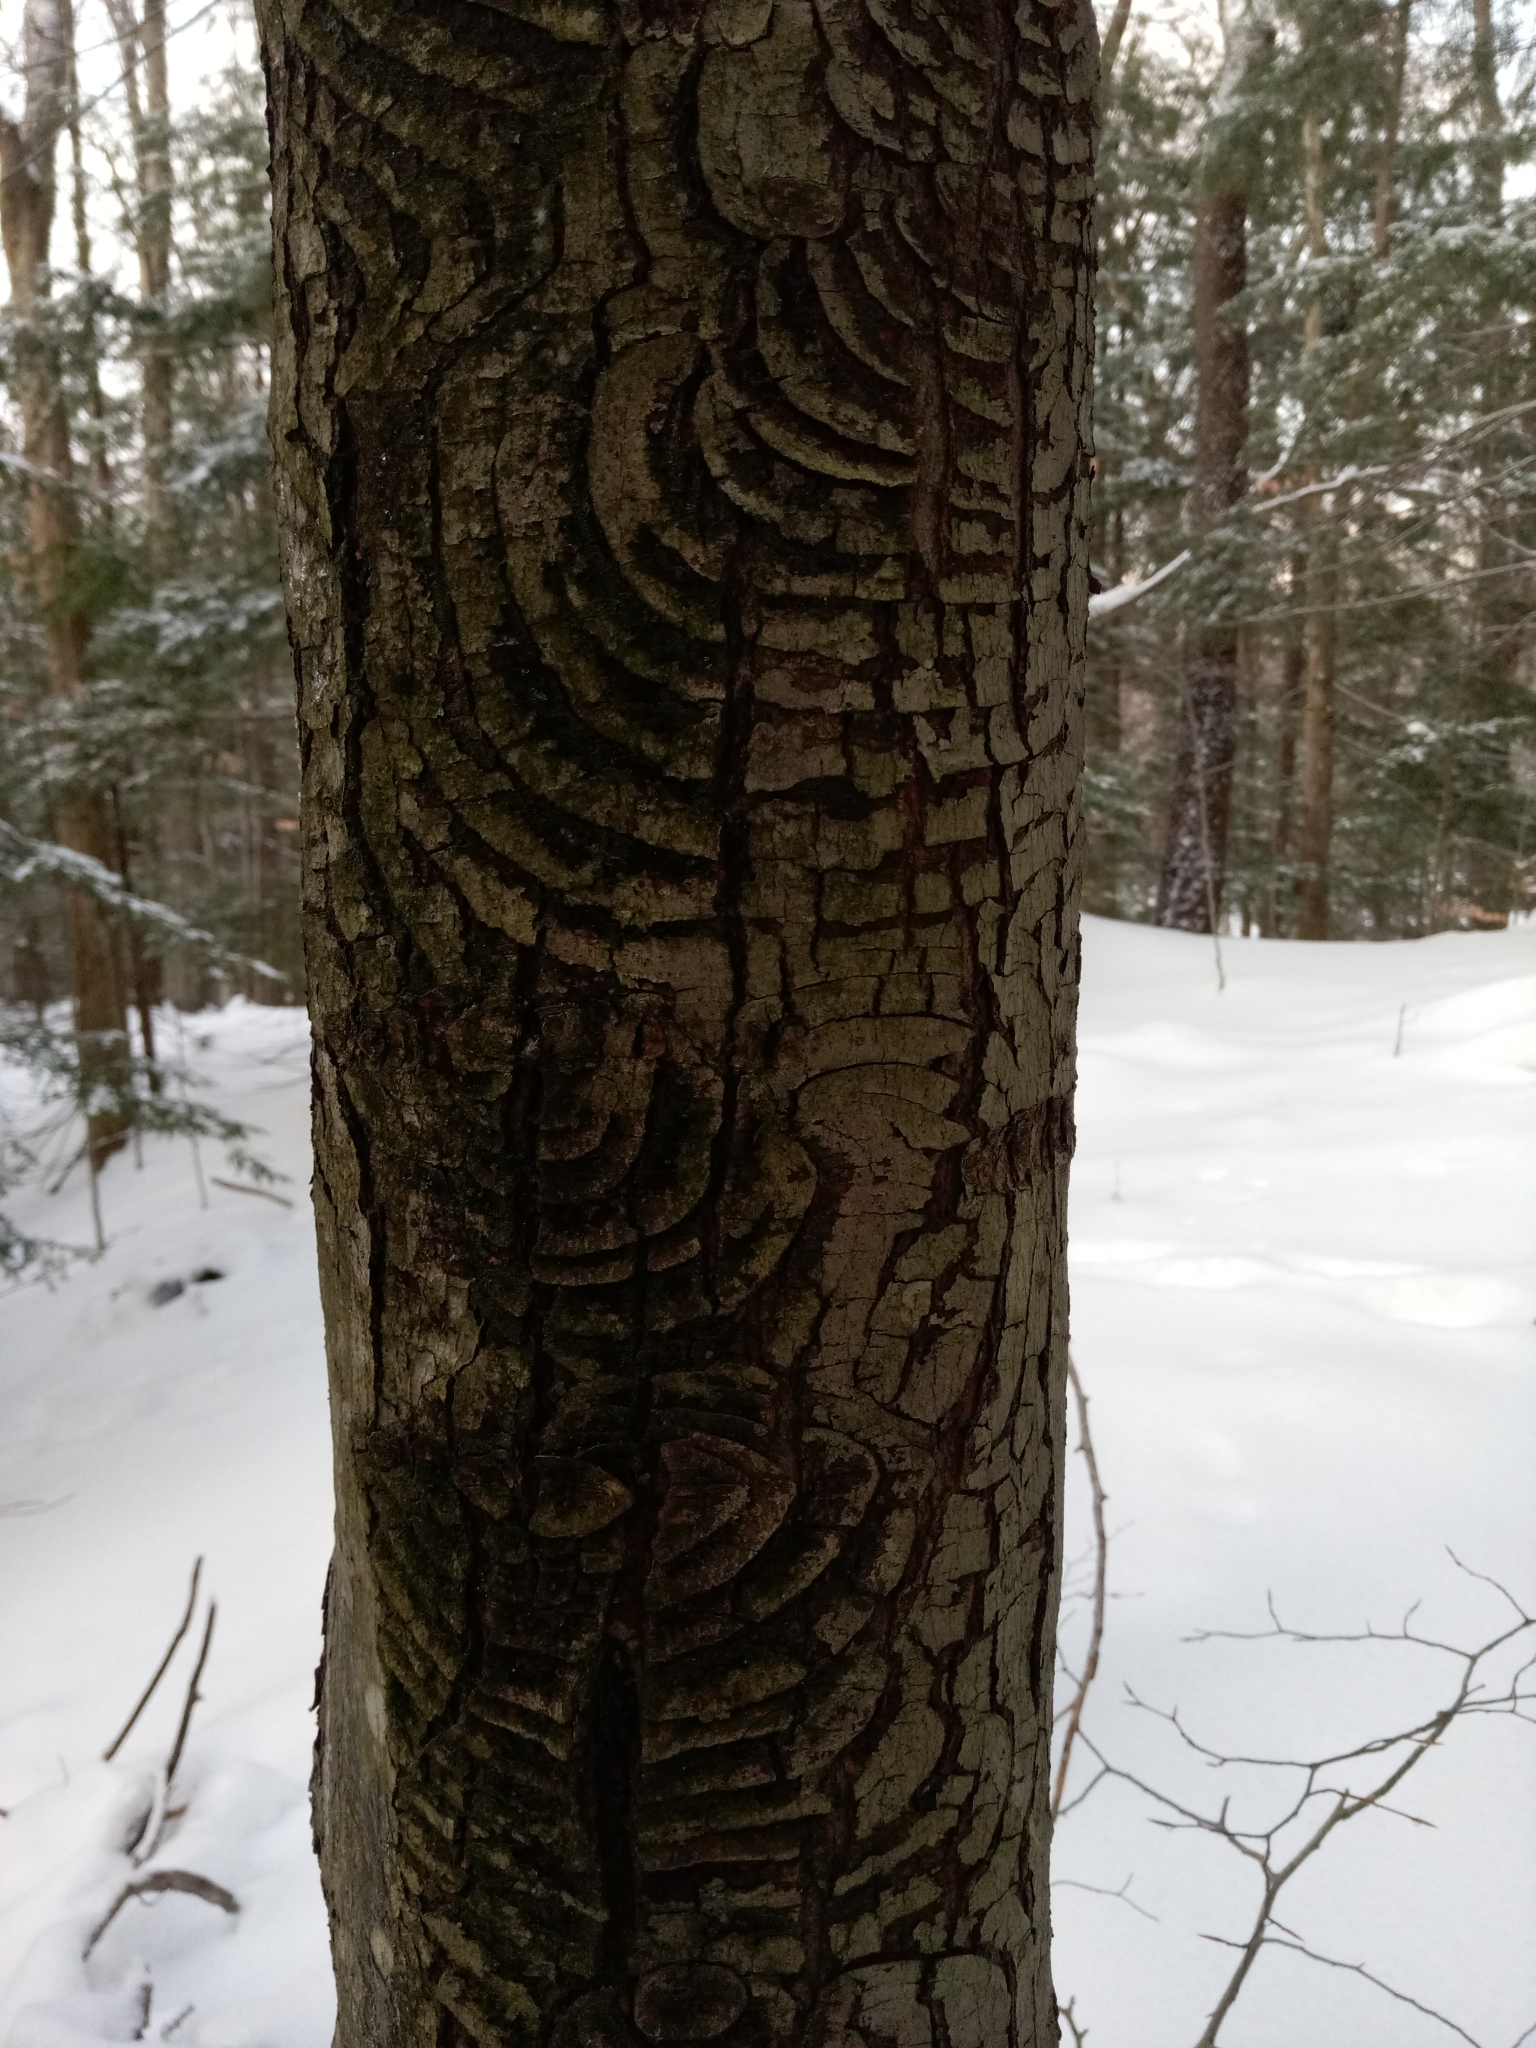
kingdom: Fungi
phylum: Ascomycota
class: Sordariomycetes
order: Hypocreales
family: Nectriaceae
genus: Neonectria
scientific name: Neonectria ditissima
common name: Apple canker
